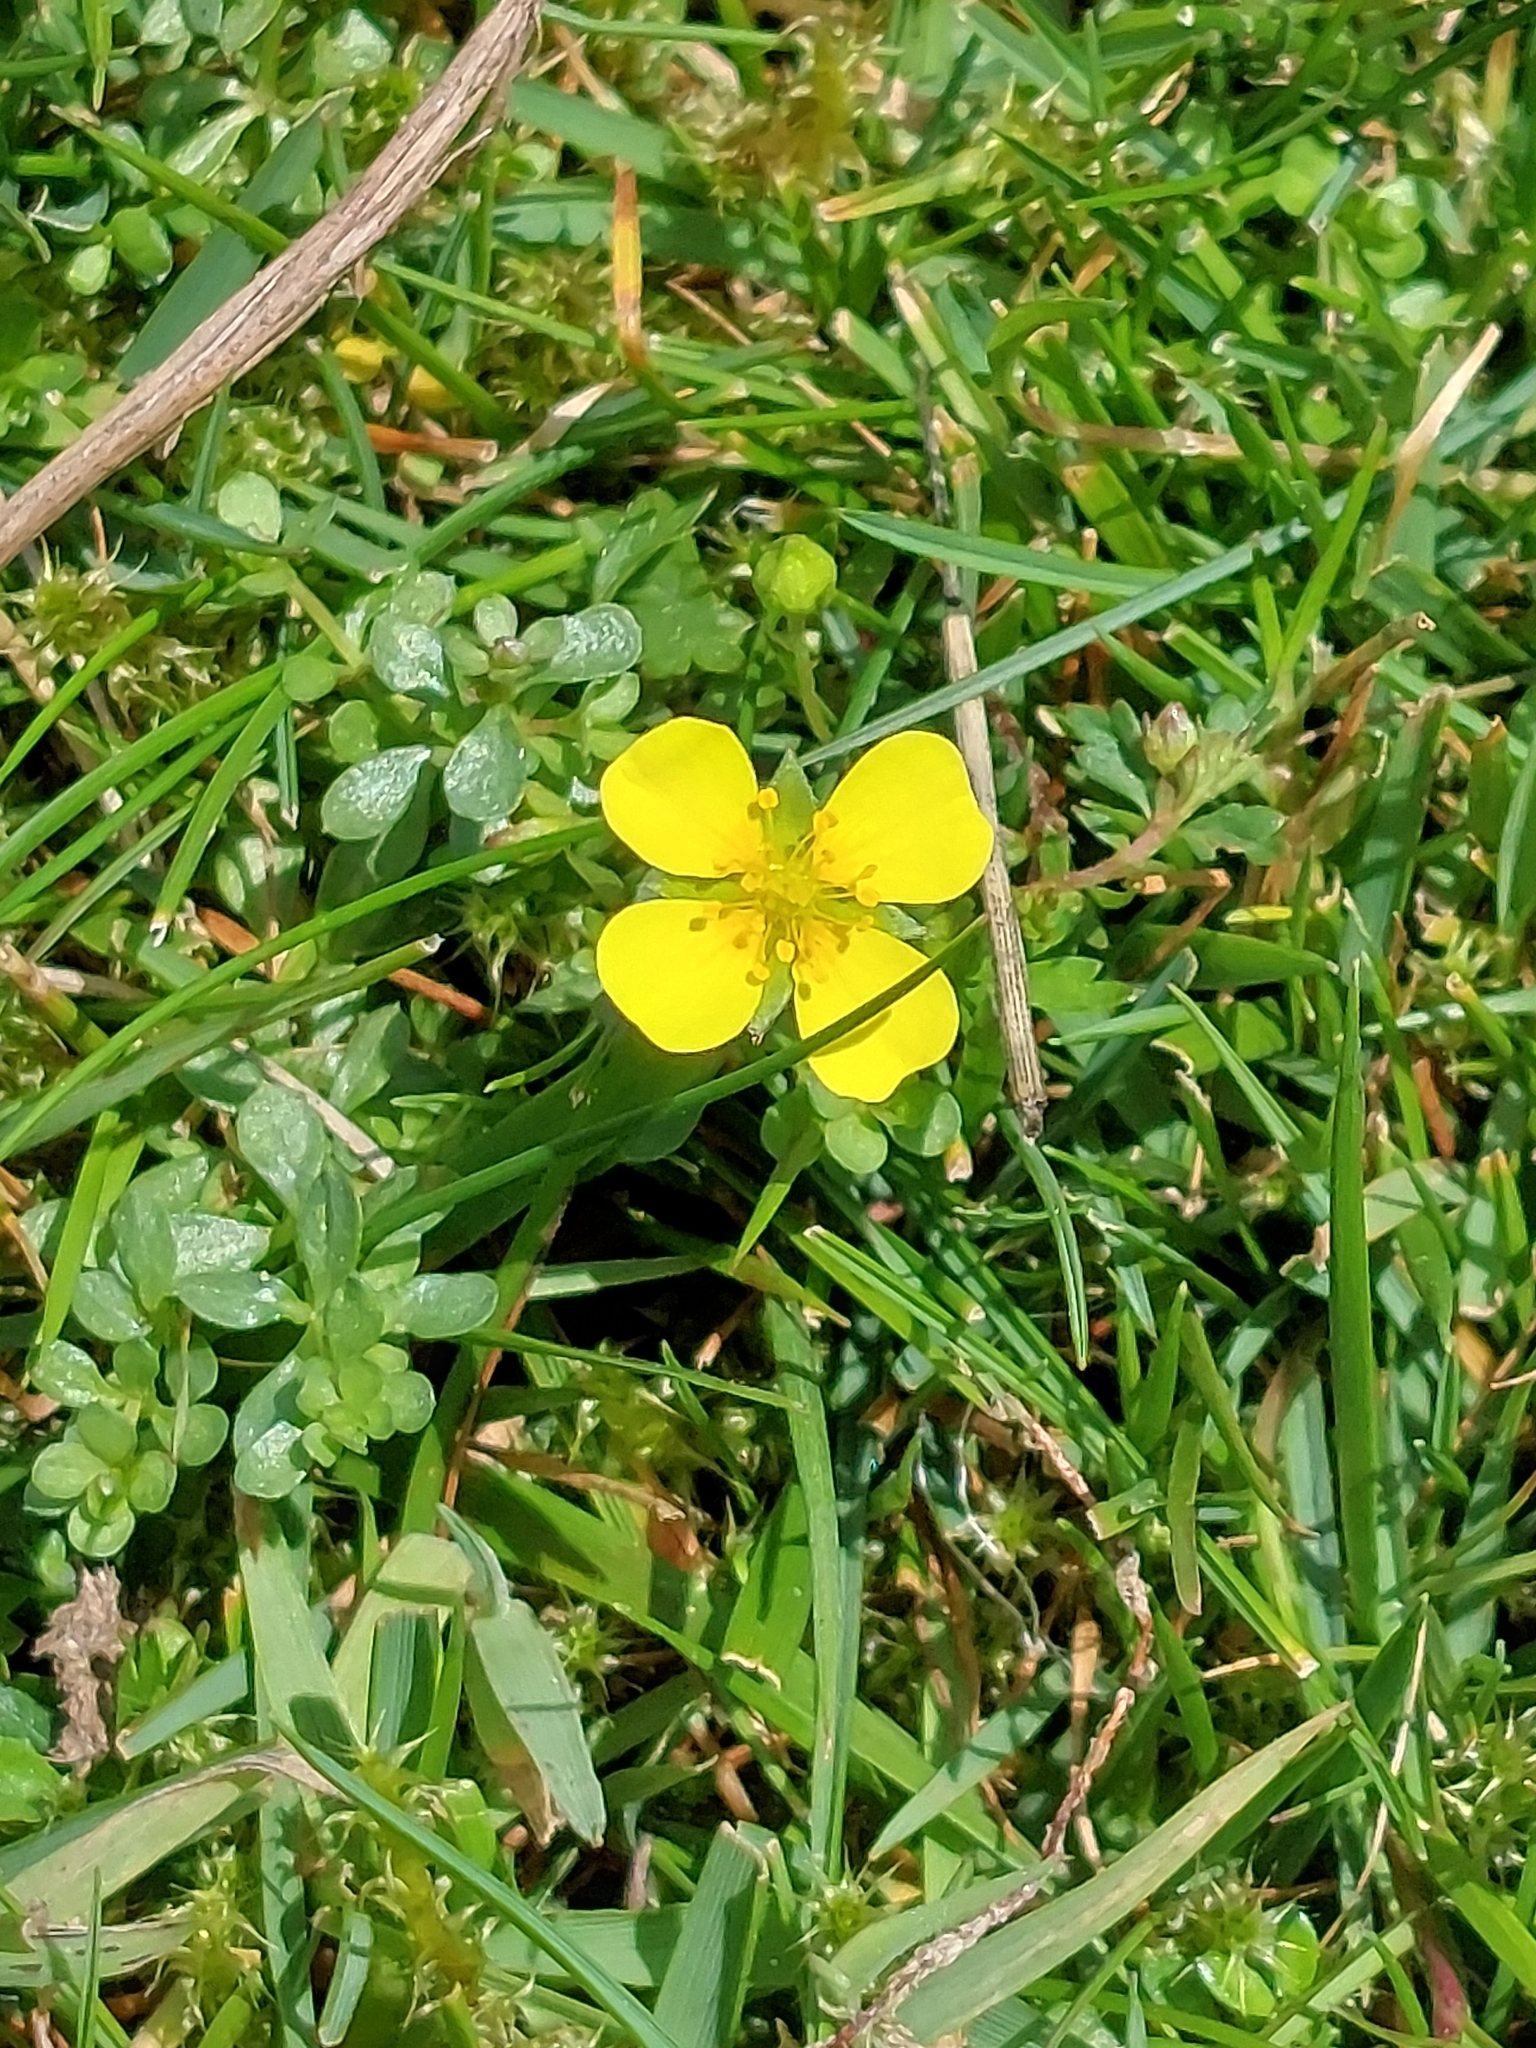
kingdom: Plantae
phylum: Tracheophyta
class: Magnoliopsida
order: Rosales
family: Rosaceae
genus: Potentilla
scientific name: Potentilla erecta
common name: Tormentil
